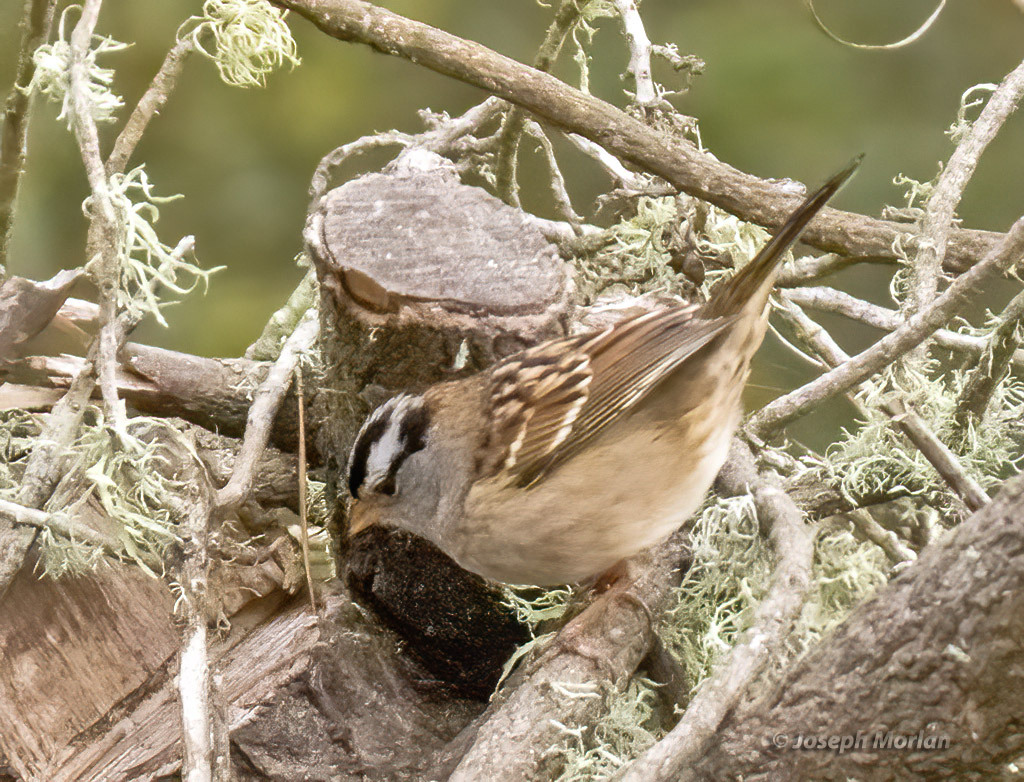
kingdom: Animalia
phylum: Chordata
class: Aves
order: Passeriformes
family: Passerellidae
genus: Zonotrichia
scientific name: Zonotrichia leucophrys
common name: White-crowned sparrow
